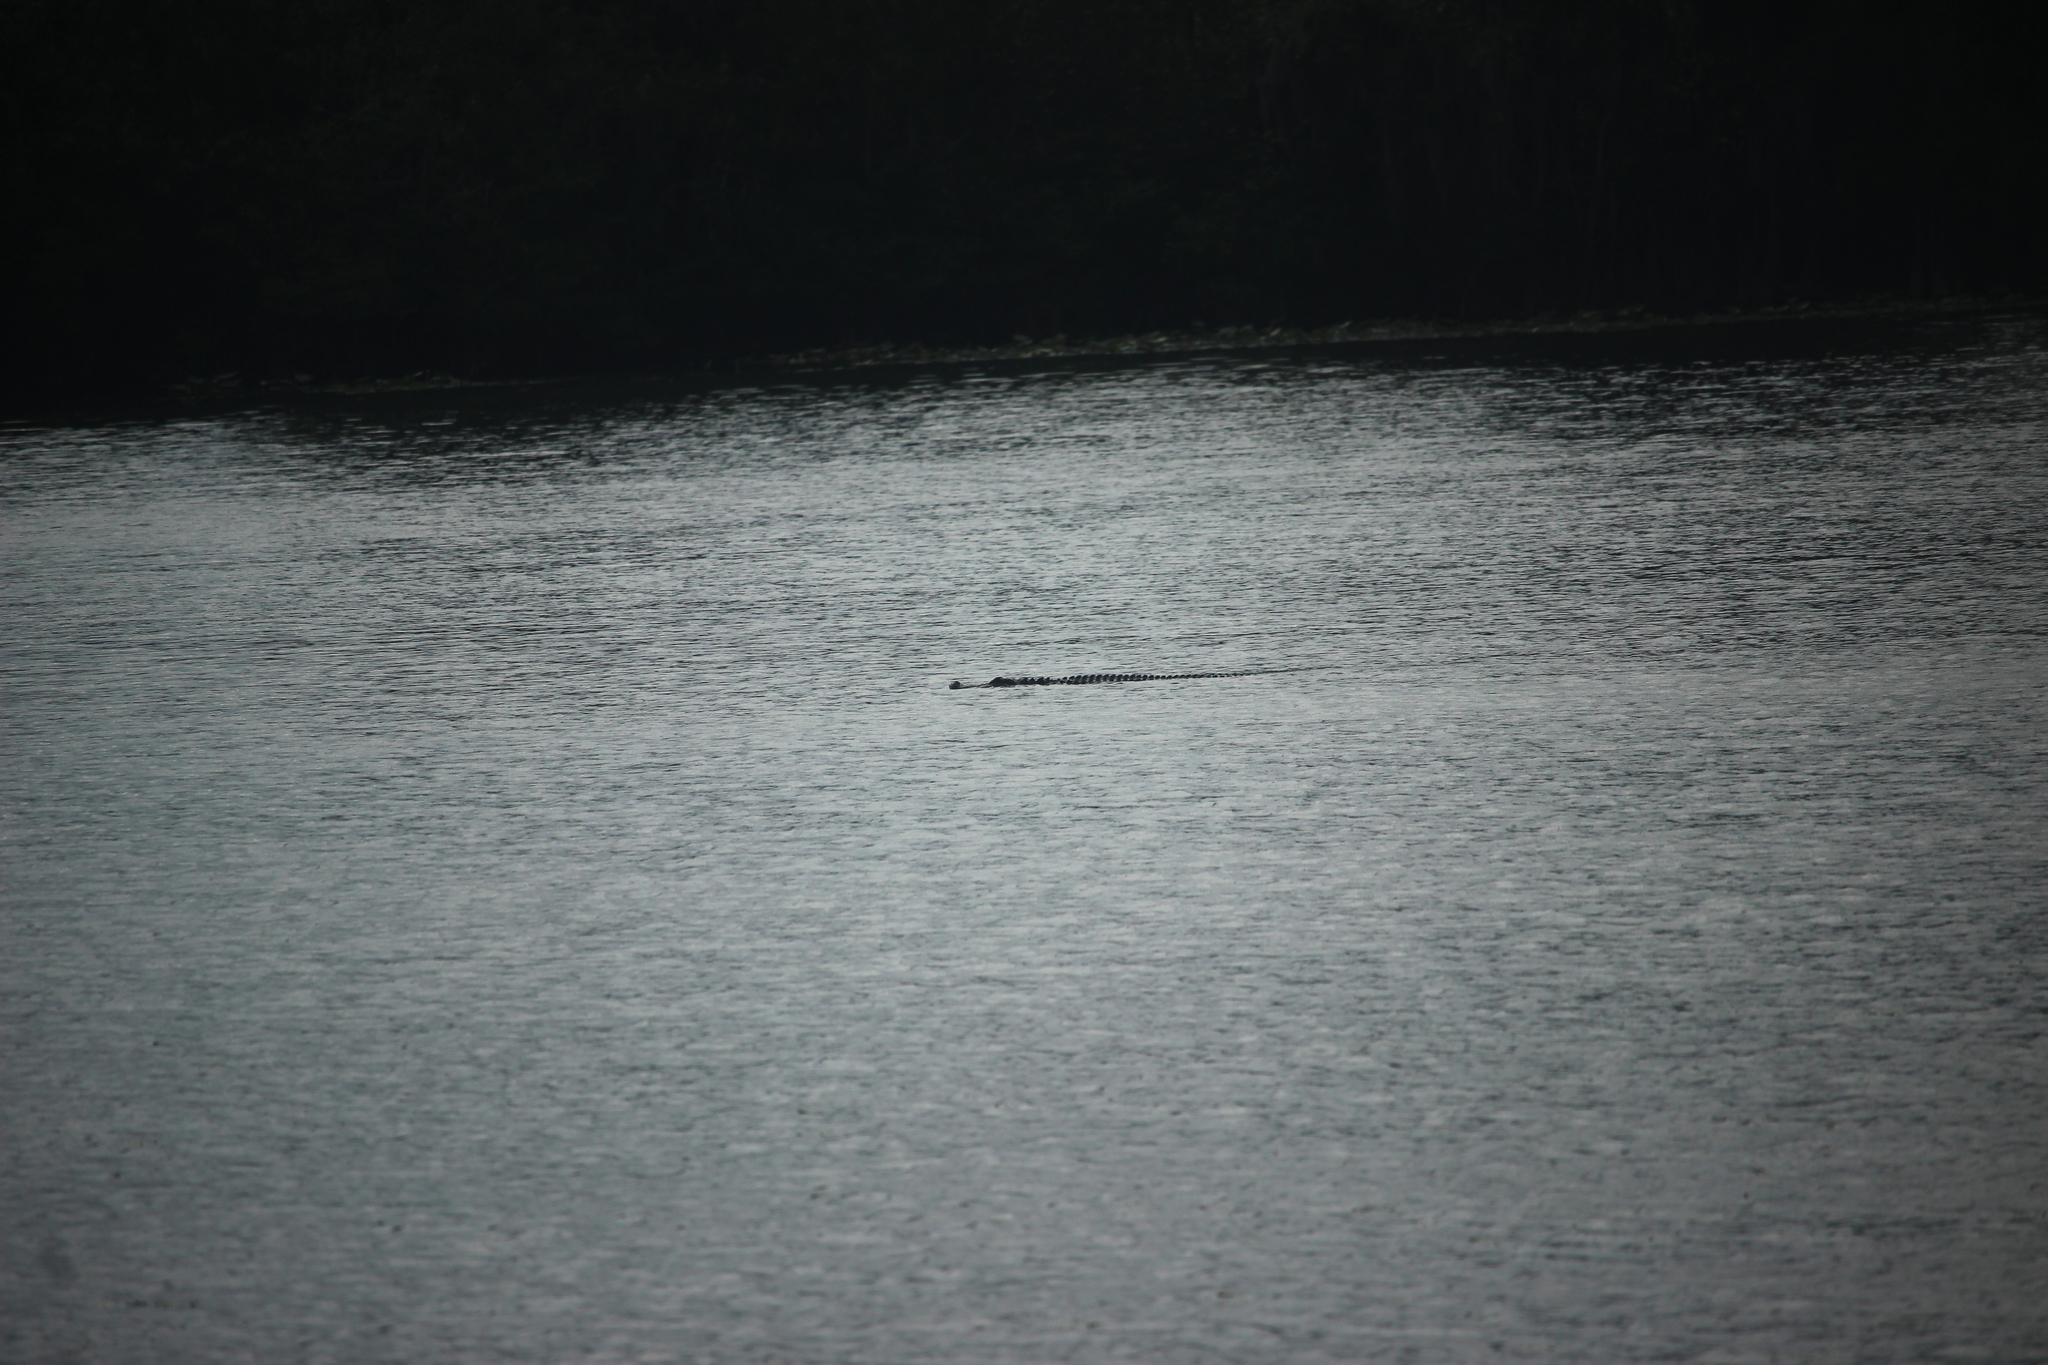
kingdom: Animalia
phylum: Chordata
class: Crocodylia
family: Alligatoridae
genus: Alligator
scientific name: Alligator mississippiensis
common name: American alligator
